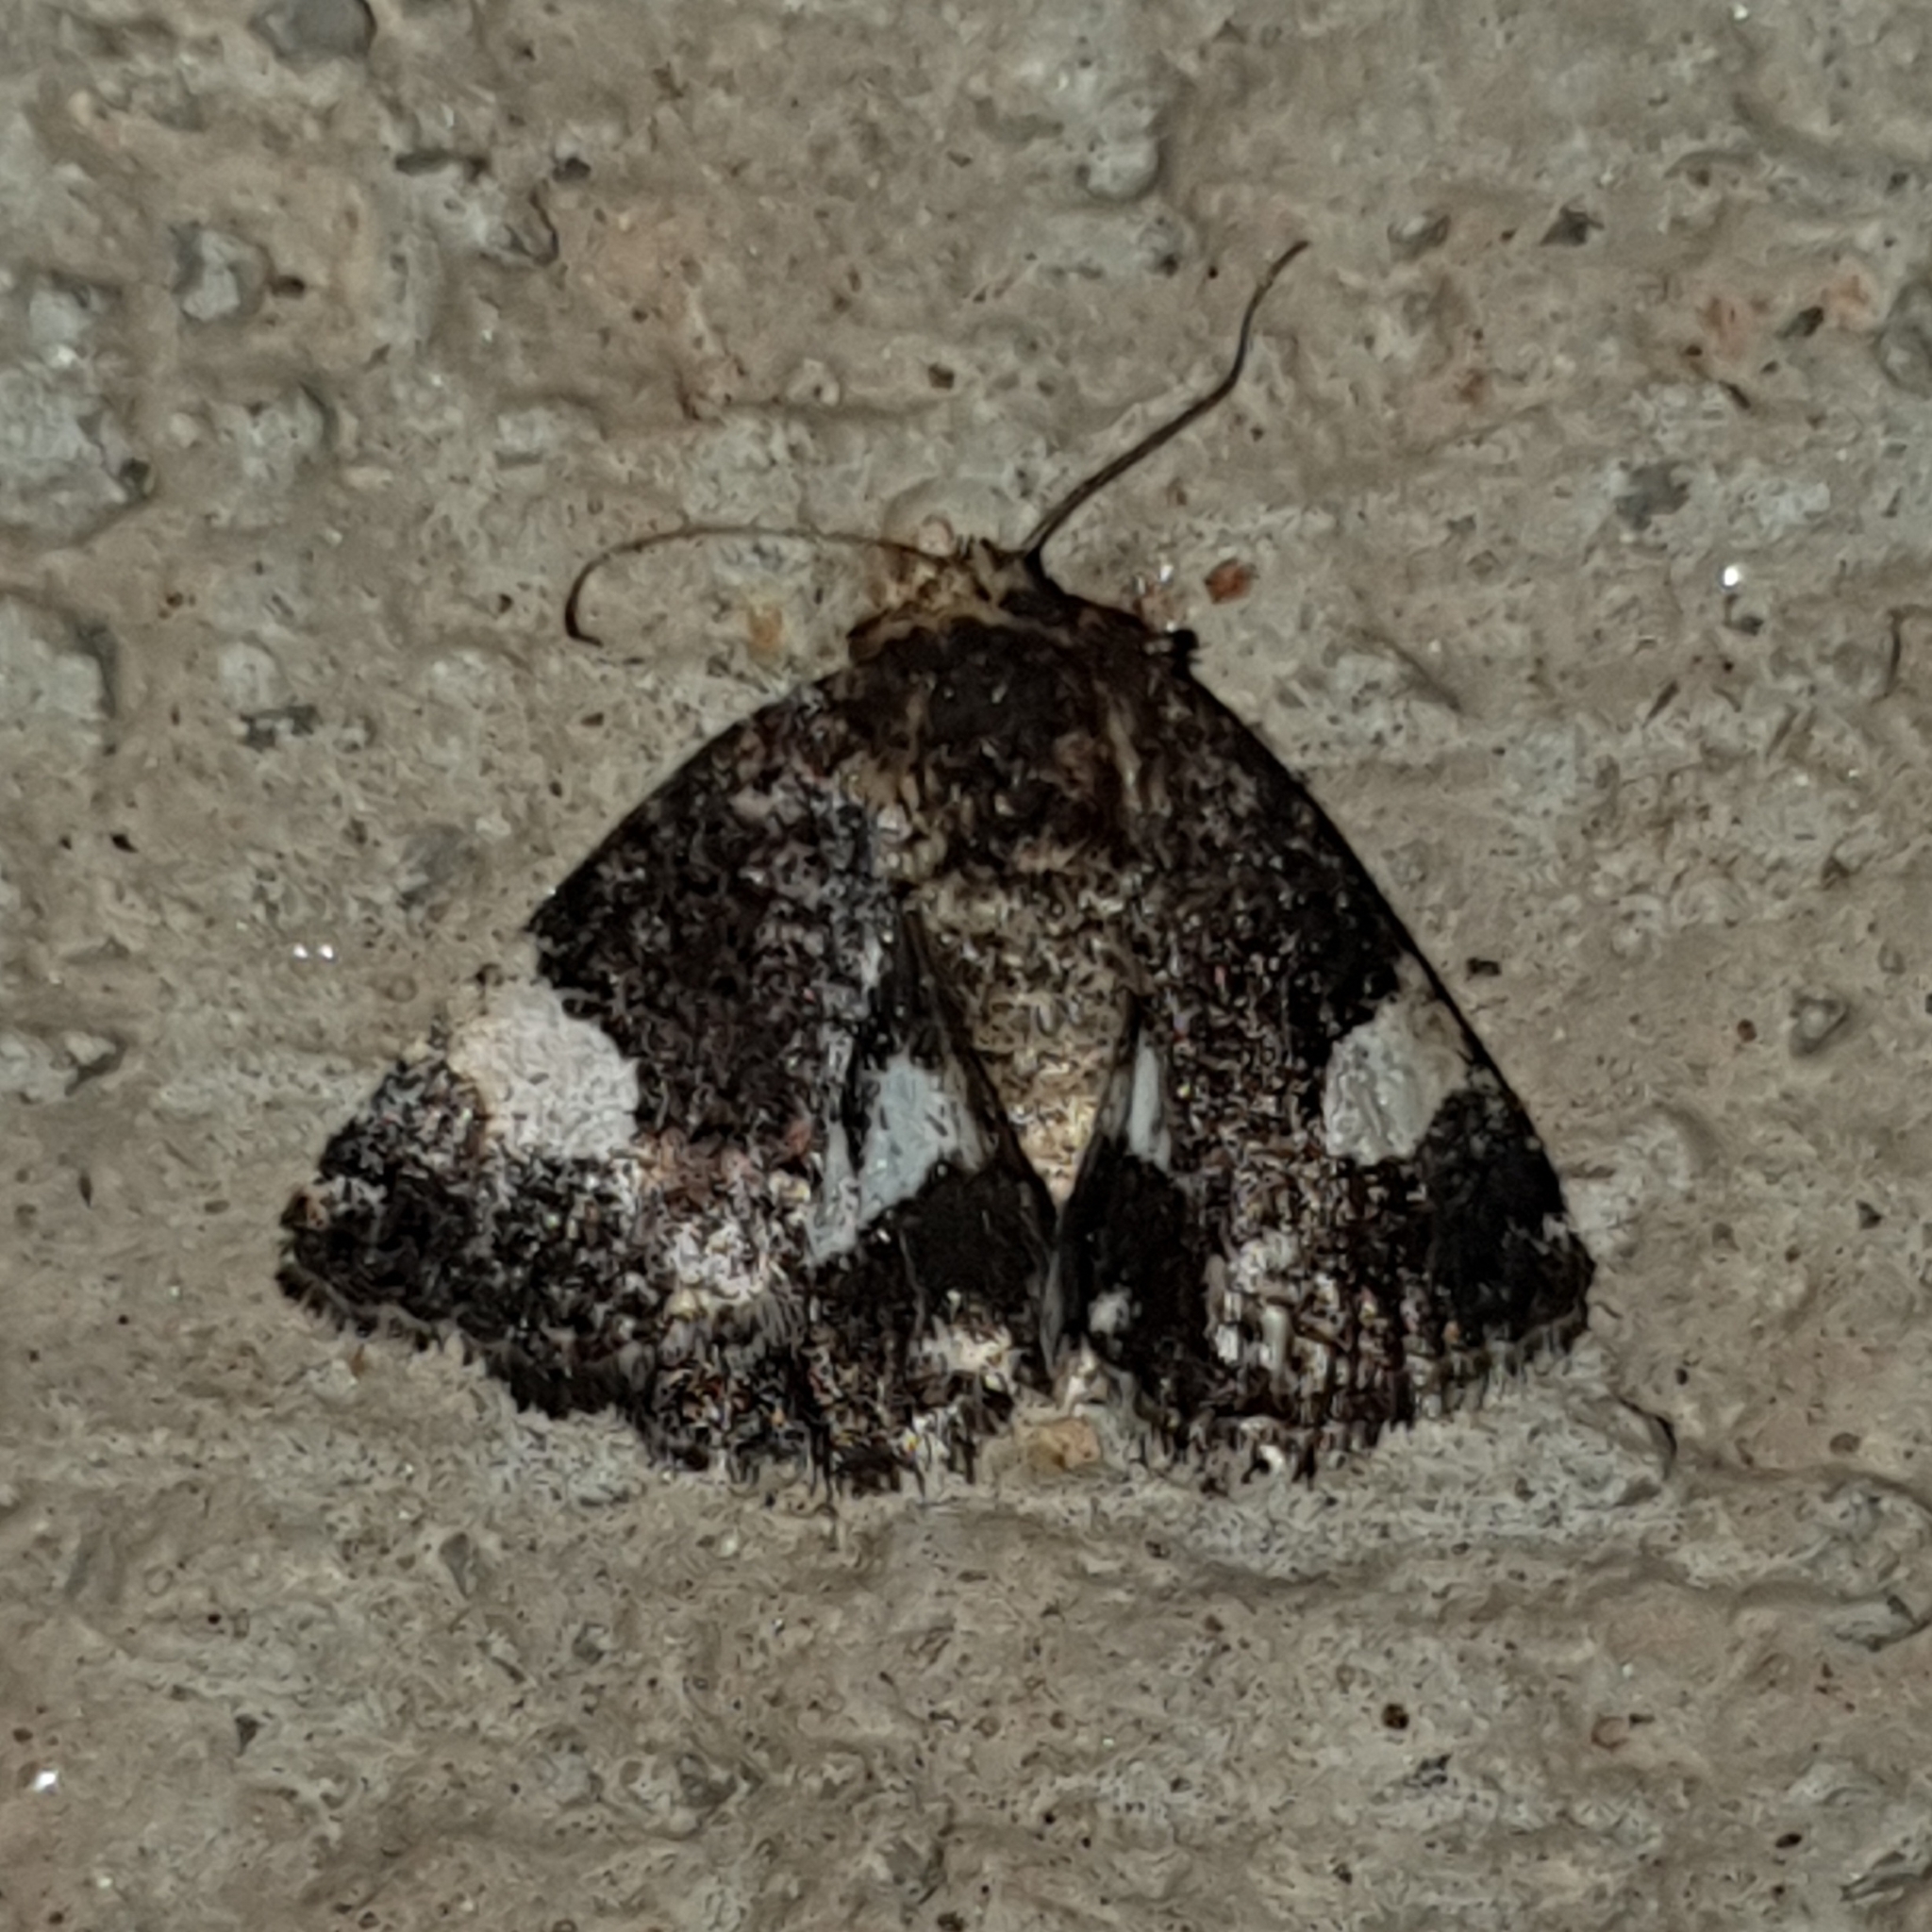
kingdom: Animalia
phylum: Arthropoda
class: Insecta
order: Lepidoptera
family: Erebidae
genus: Tyta
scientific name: Tyta luctuosa
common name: Four-spotted
